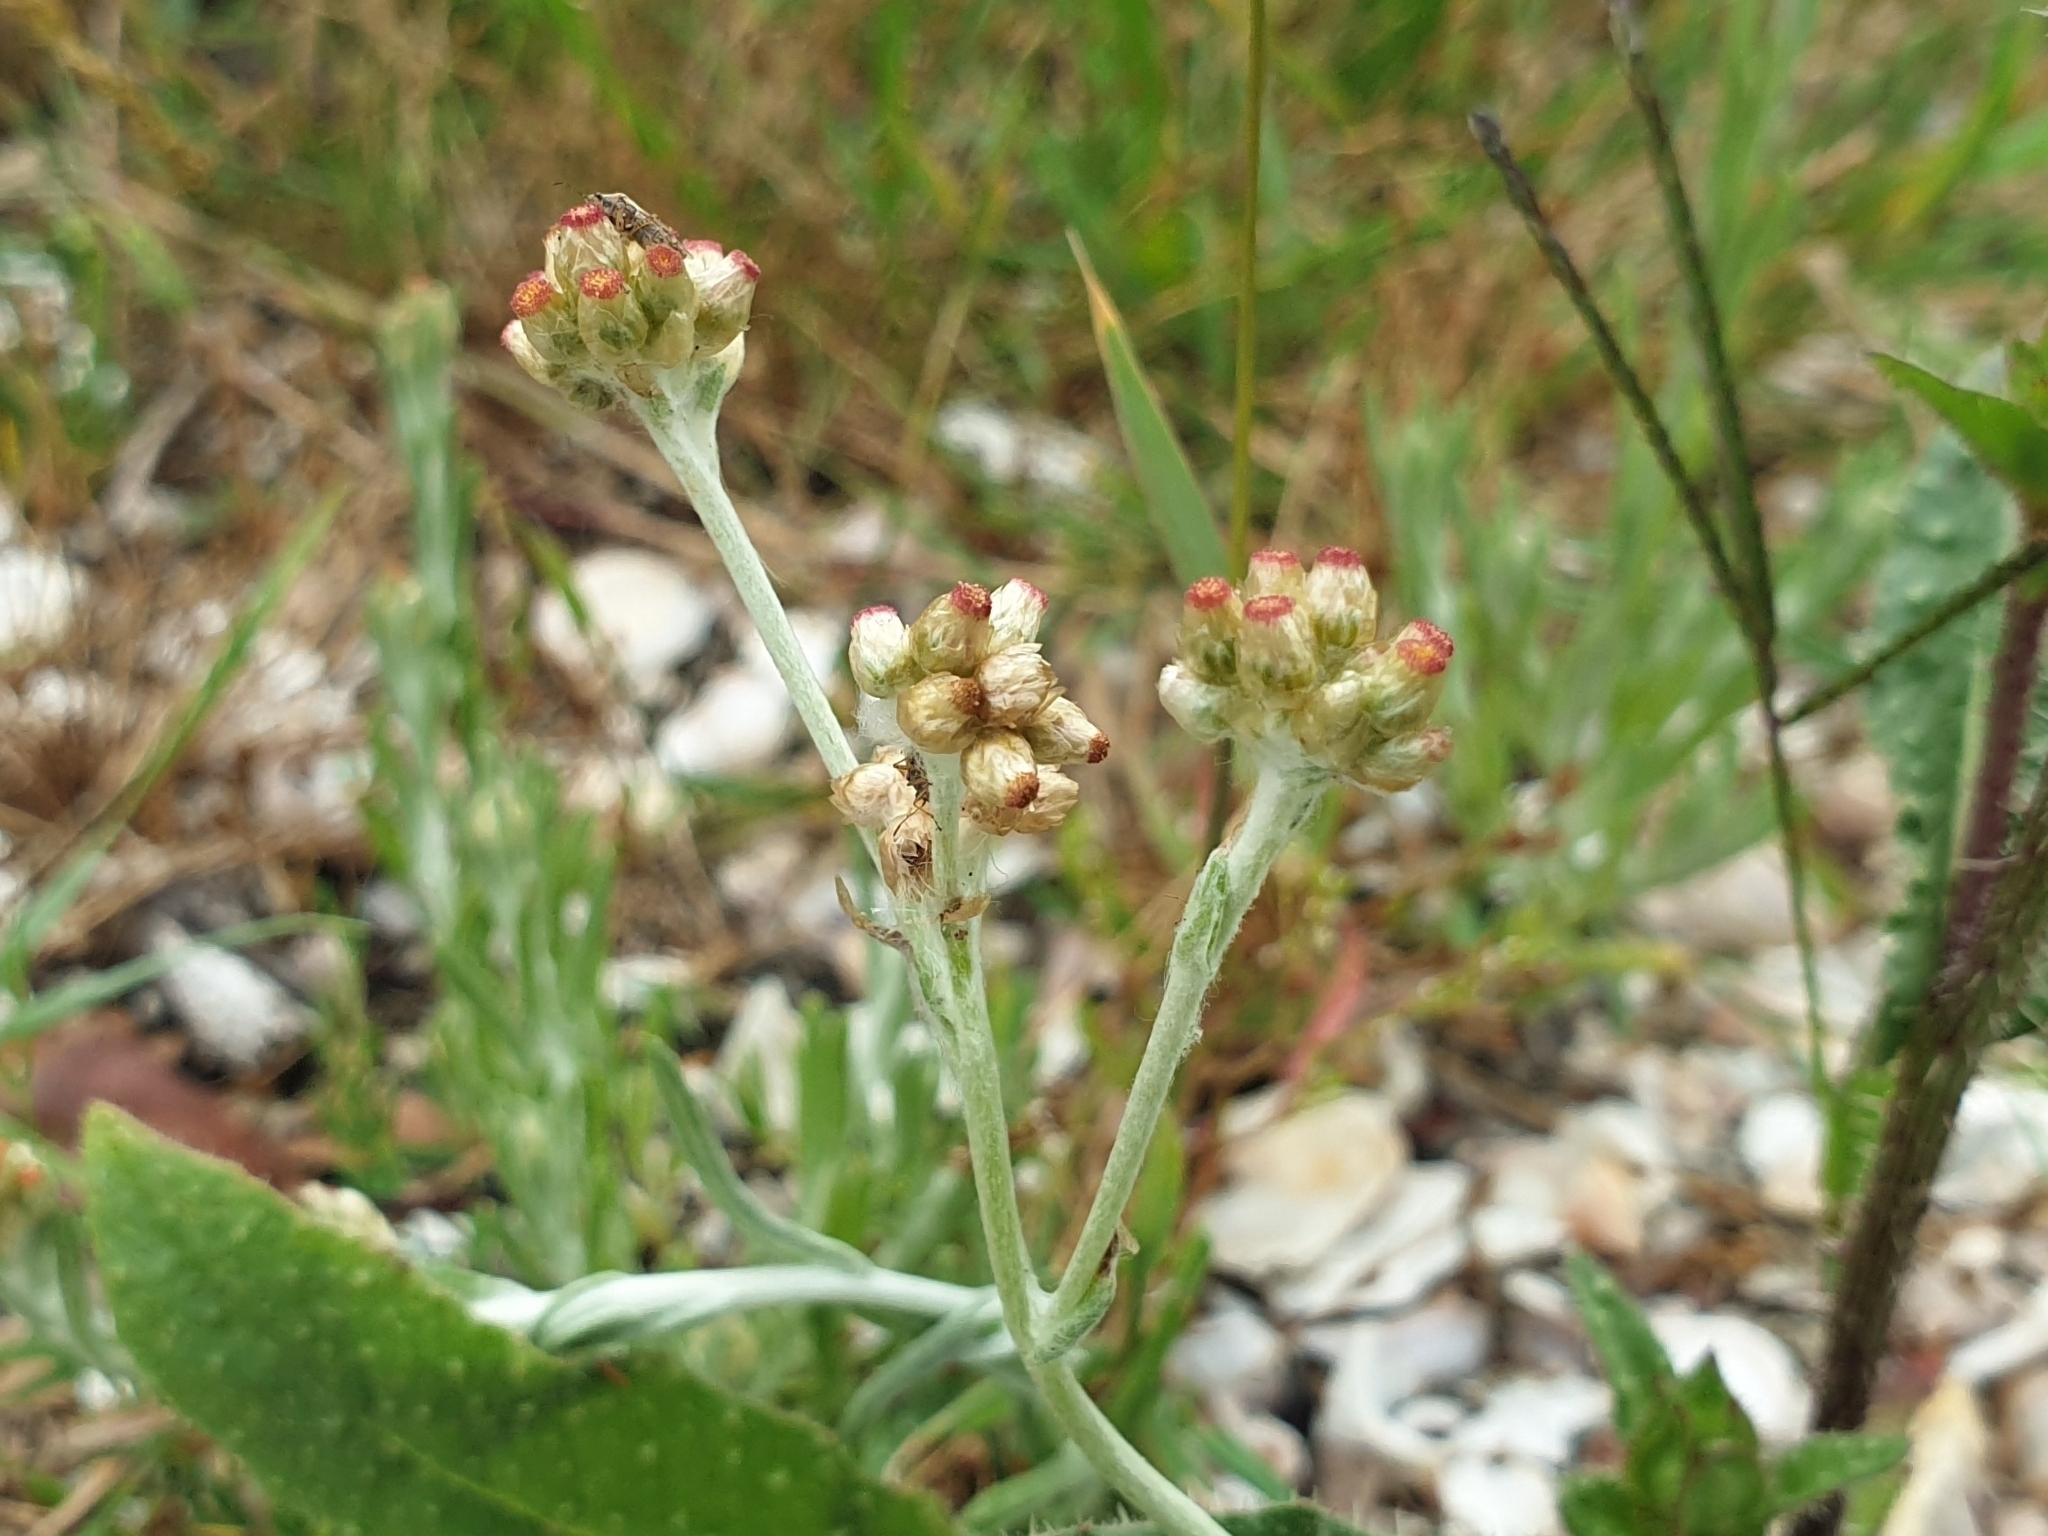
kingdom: Plantae
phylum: Tracheophyta
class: Magnoliopsida
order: Asterales
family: Asteraceae
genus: Helichrysum
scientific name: Helichrysum luteoalbum
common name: Daisy
